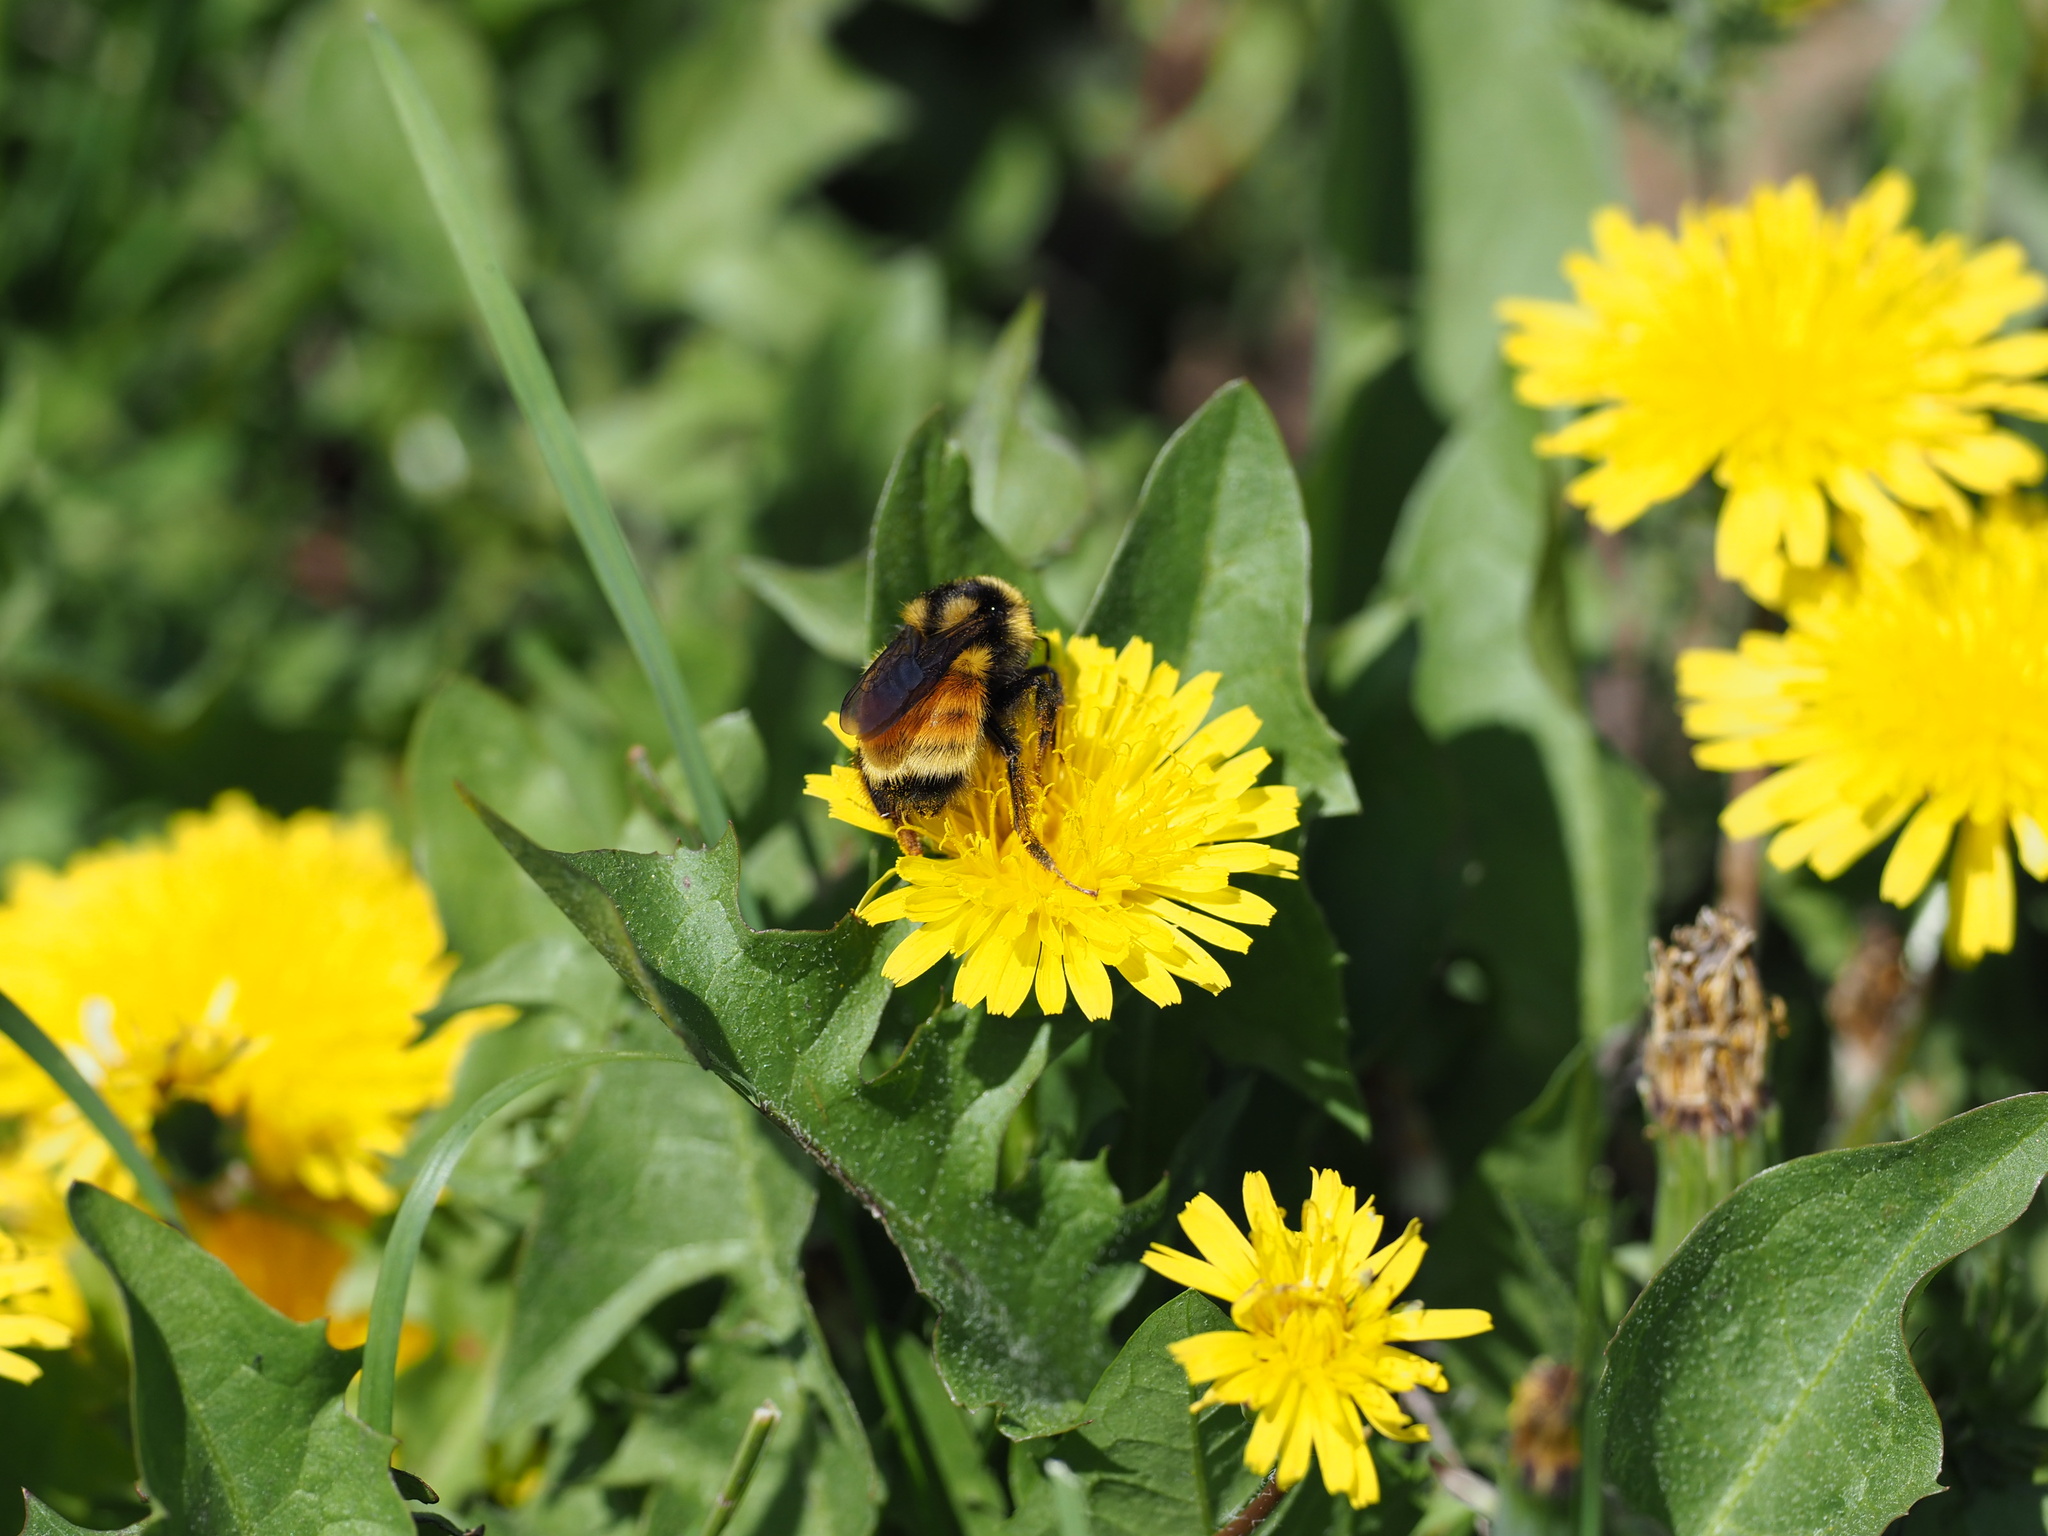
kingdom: Animalia
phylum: Arthropoda
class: Insecta
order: Hymenoptera
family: Apidae
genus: Bombus
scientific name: Bombus vancouverensis
